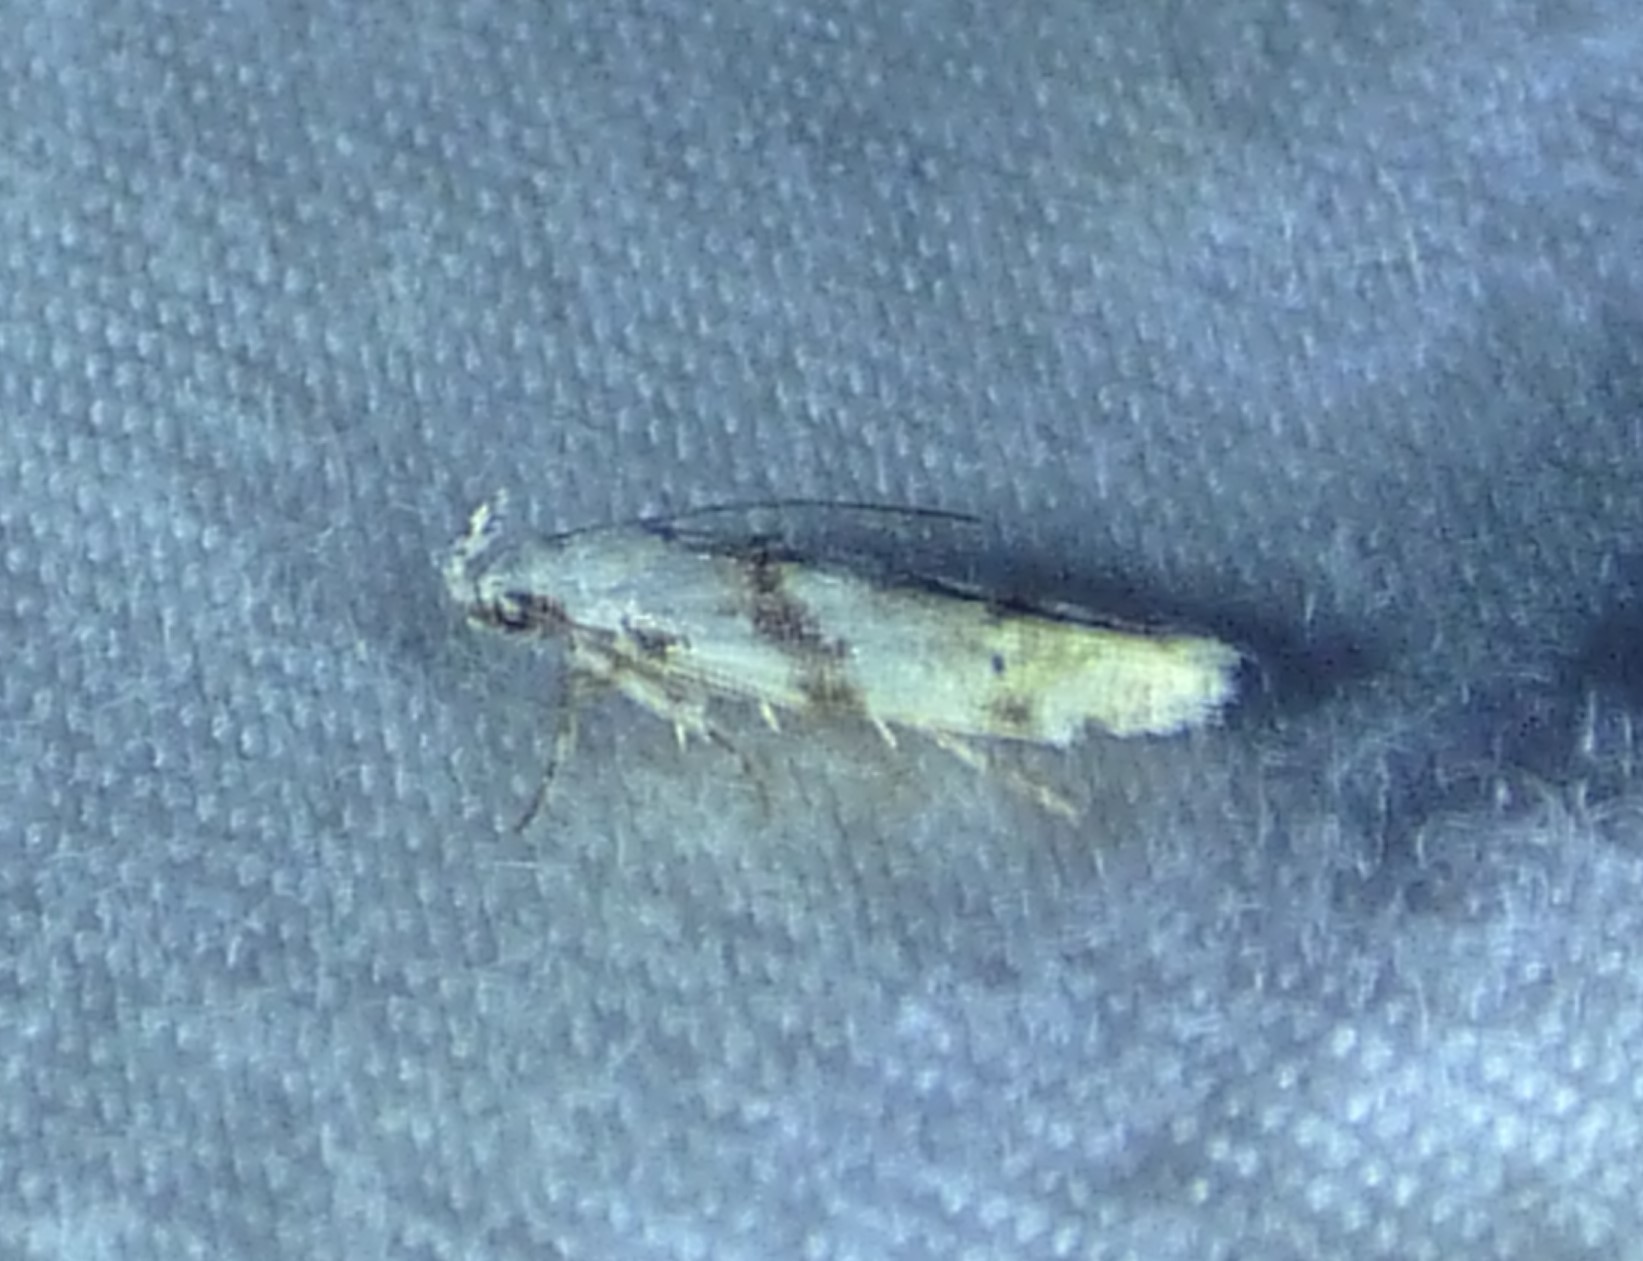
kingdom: Animalia
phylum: Arthropoda
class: Insecta
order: Lepidoptera
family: Gelechiidae
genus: Arogalea
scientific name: Arogalea cristifasciella
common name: White stripe-backed moth
